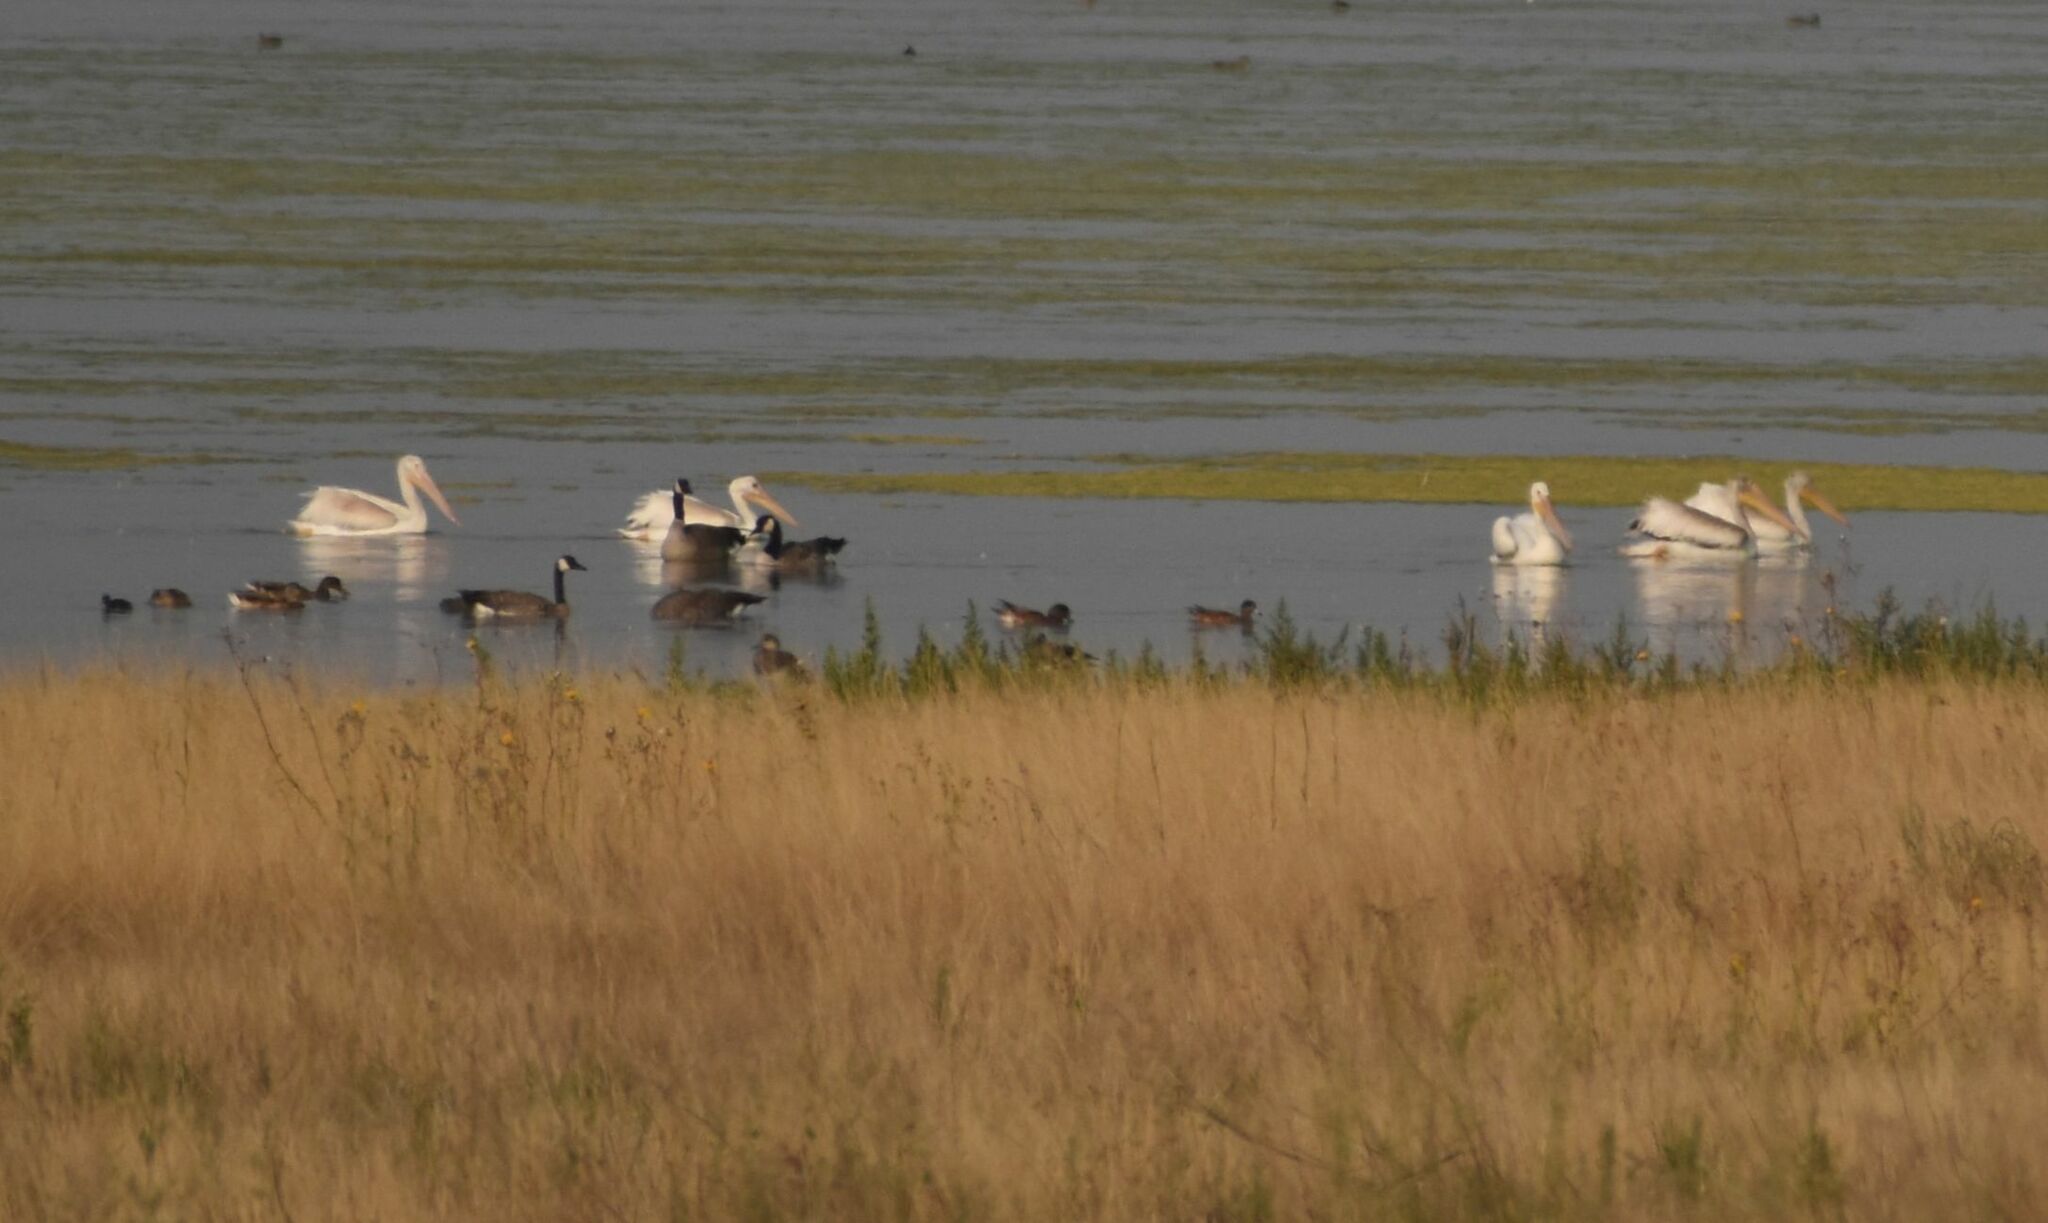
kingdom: Animalia
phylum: Chordata
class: Aves
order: Pelecaniformes
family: Pelecanidae
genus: Pelecanus
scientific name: Pelecanus erythrorhynchos
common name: American white pelican
